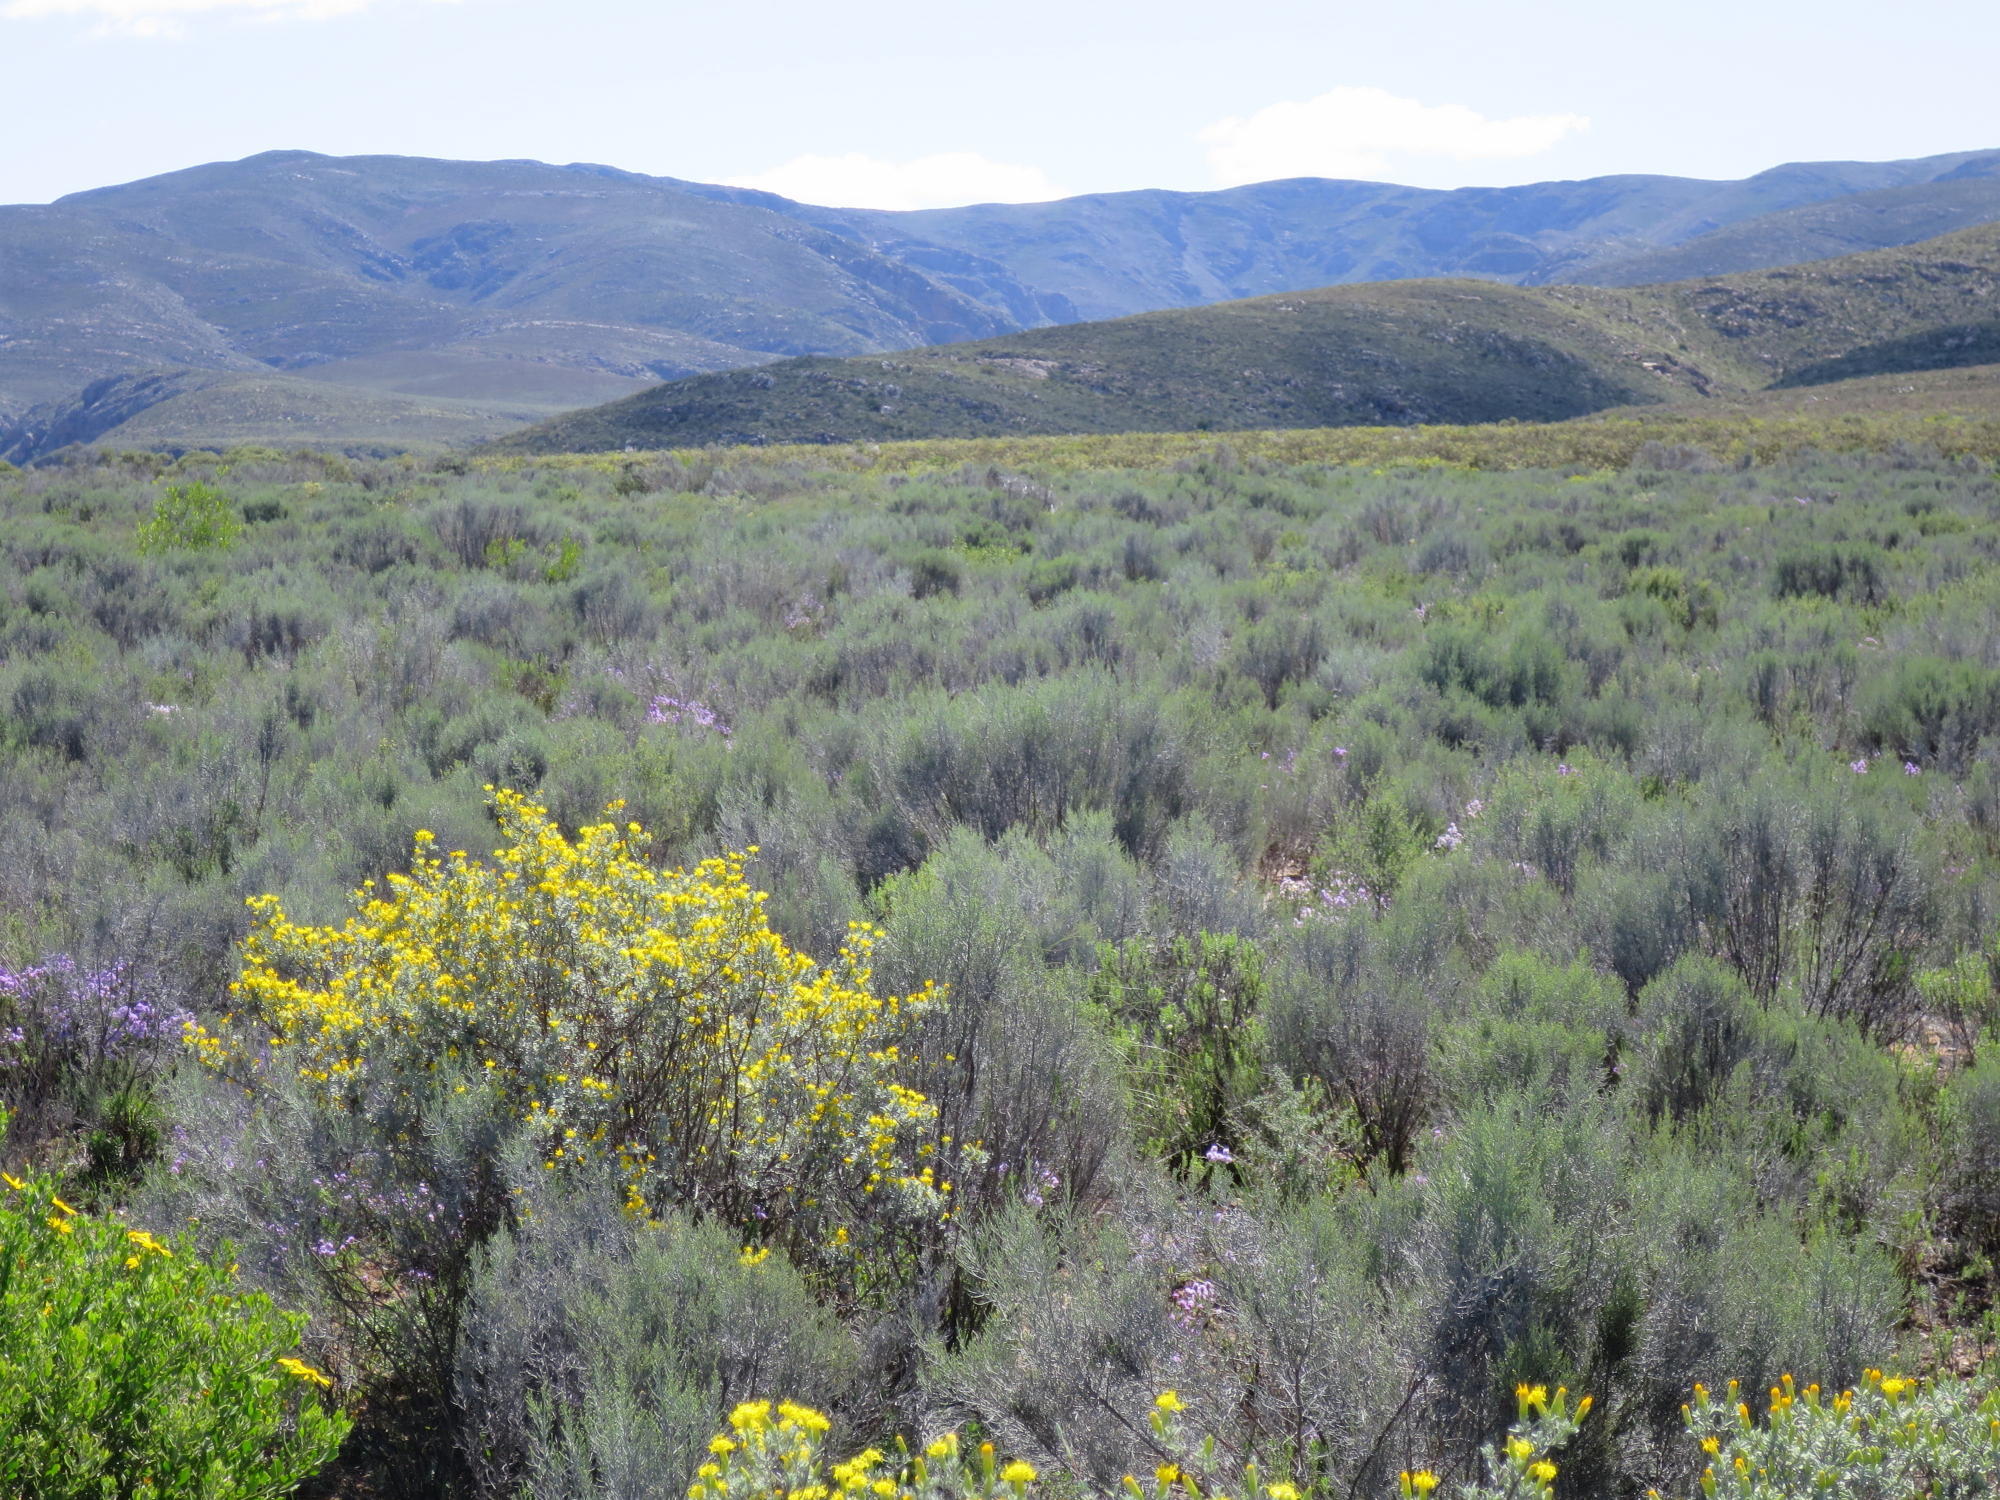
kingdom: Plantae
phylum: Tracheophyta
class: Magnoliopsida
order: Asterales
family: Asteraceae
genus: Dicerothamnus
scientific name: Dicerothamnus rhinocerotis
